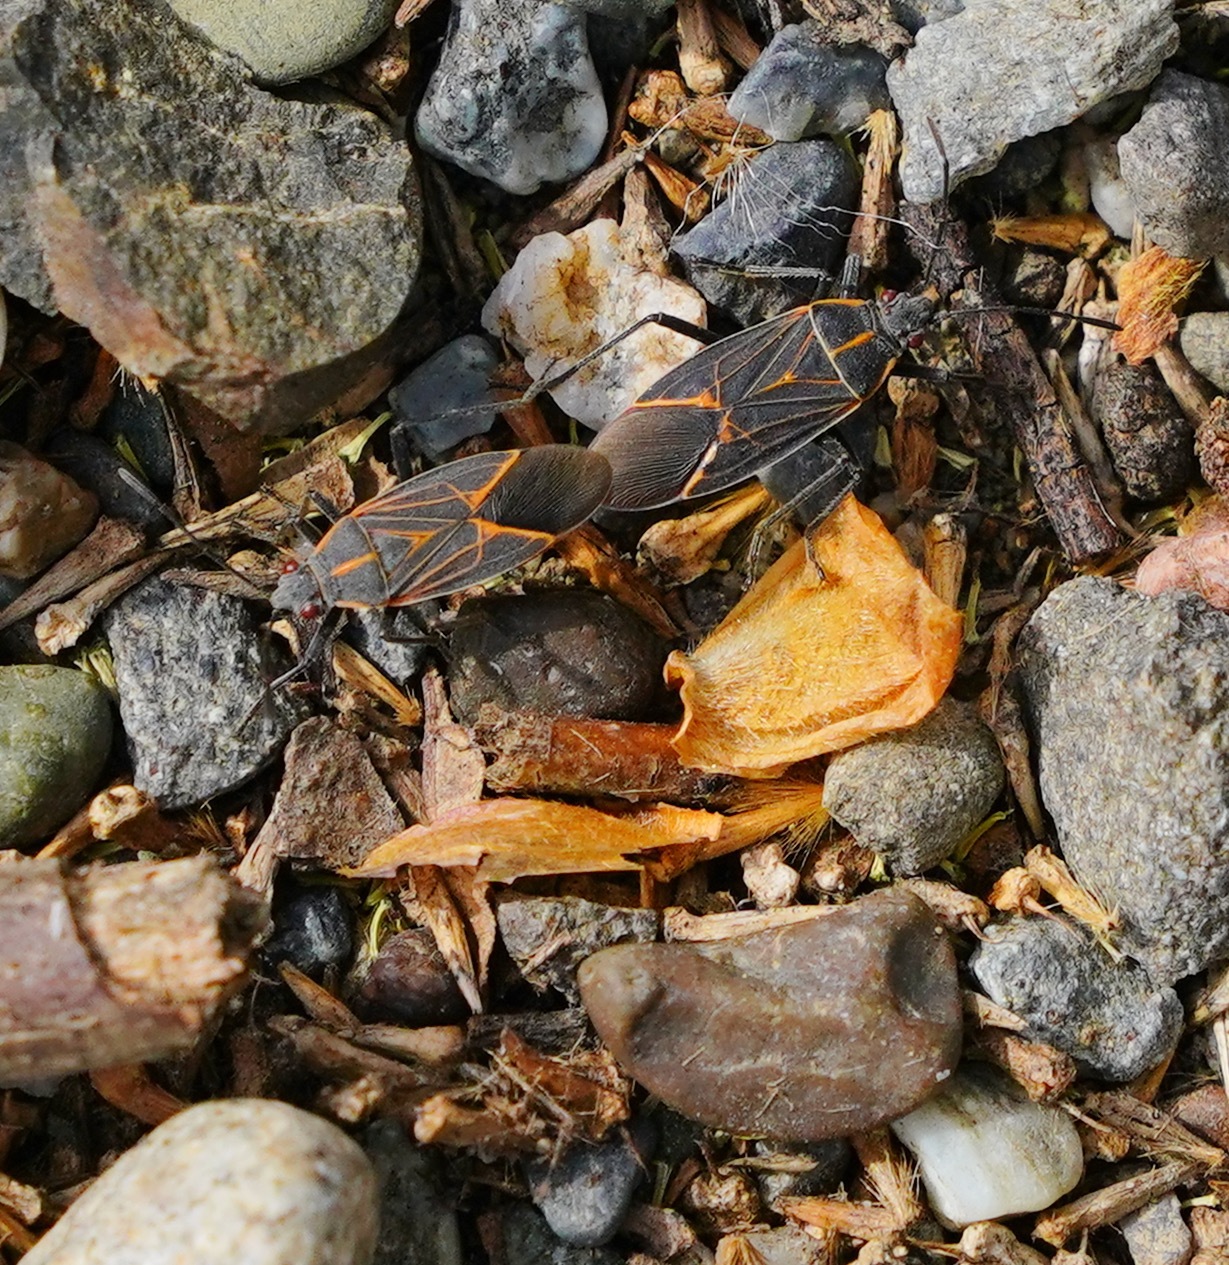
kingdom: Animalia
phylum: Arthropoda
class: Insecta
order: Hemiptera
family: Rhopalidae
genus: Boisea
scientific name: Boisea rubrolineata
